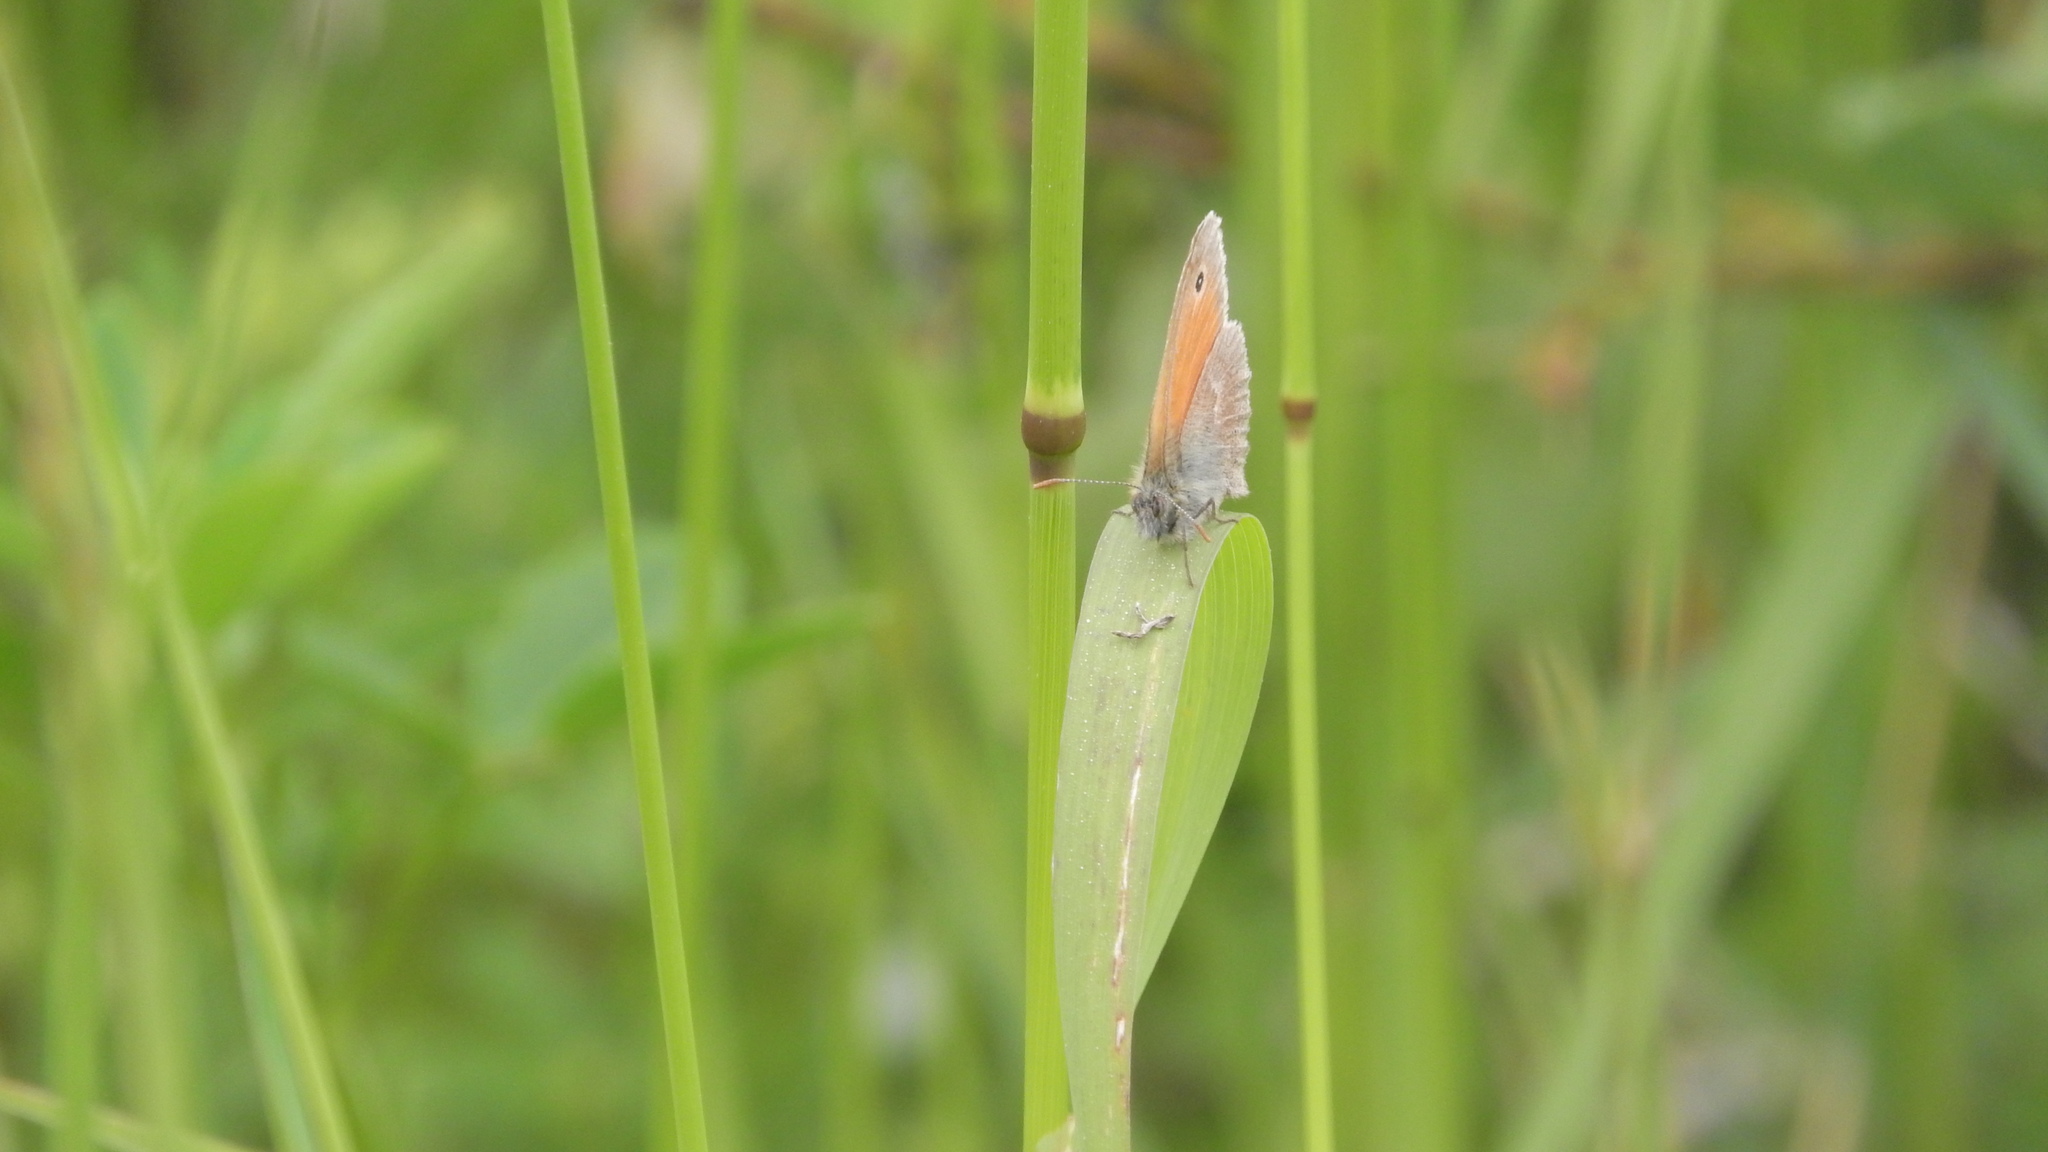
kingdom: Animalia
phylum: Arthropoda
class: Insecta
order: Lepidoptera
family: Nymphalidae
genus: Coenonympha
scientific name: Coenonympha pamphilus
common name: Small heath
